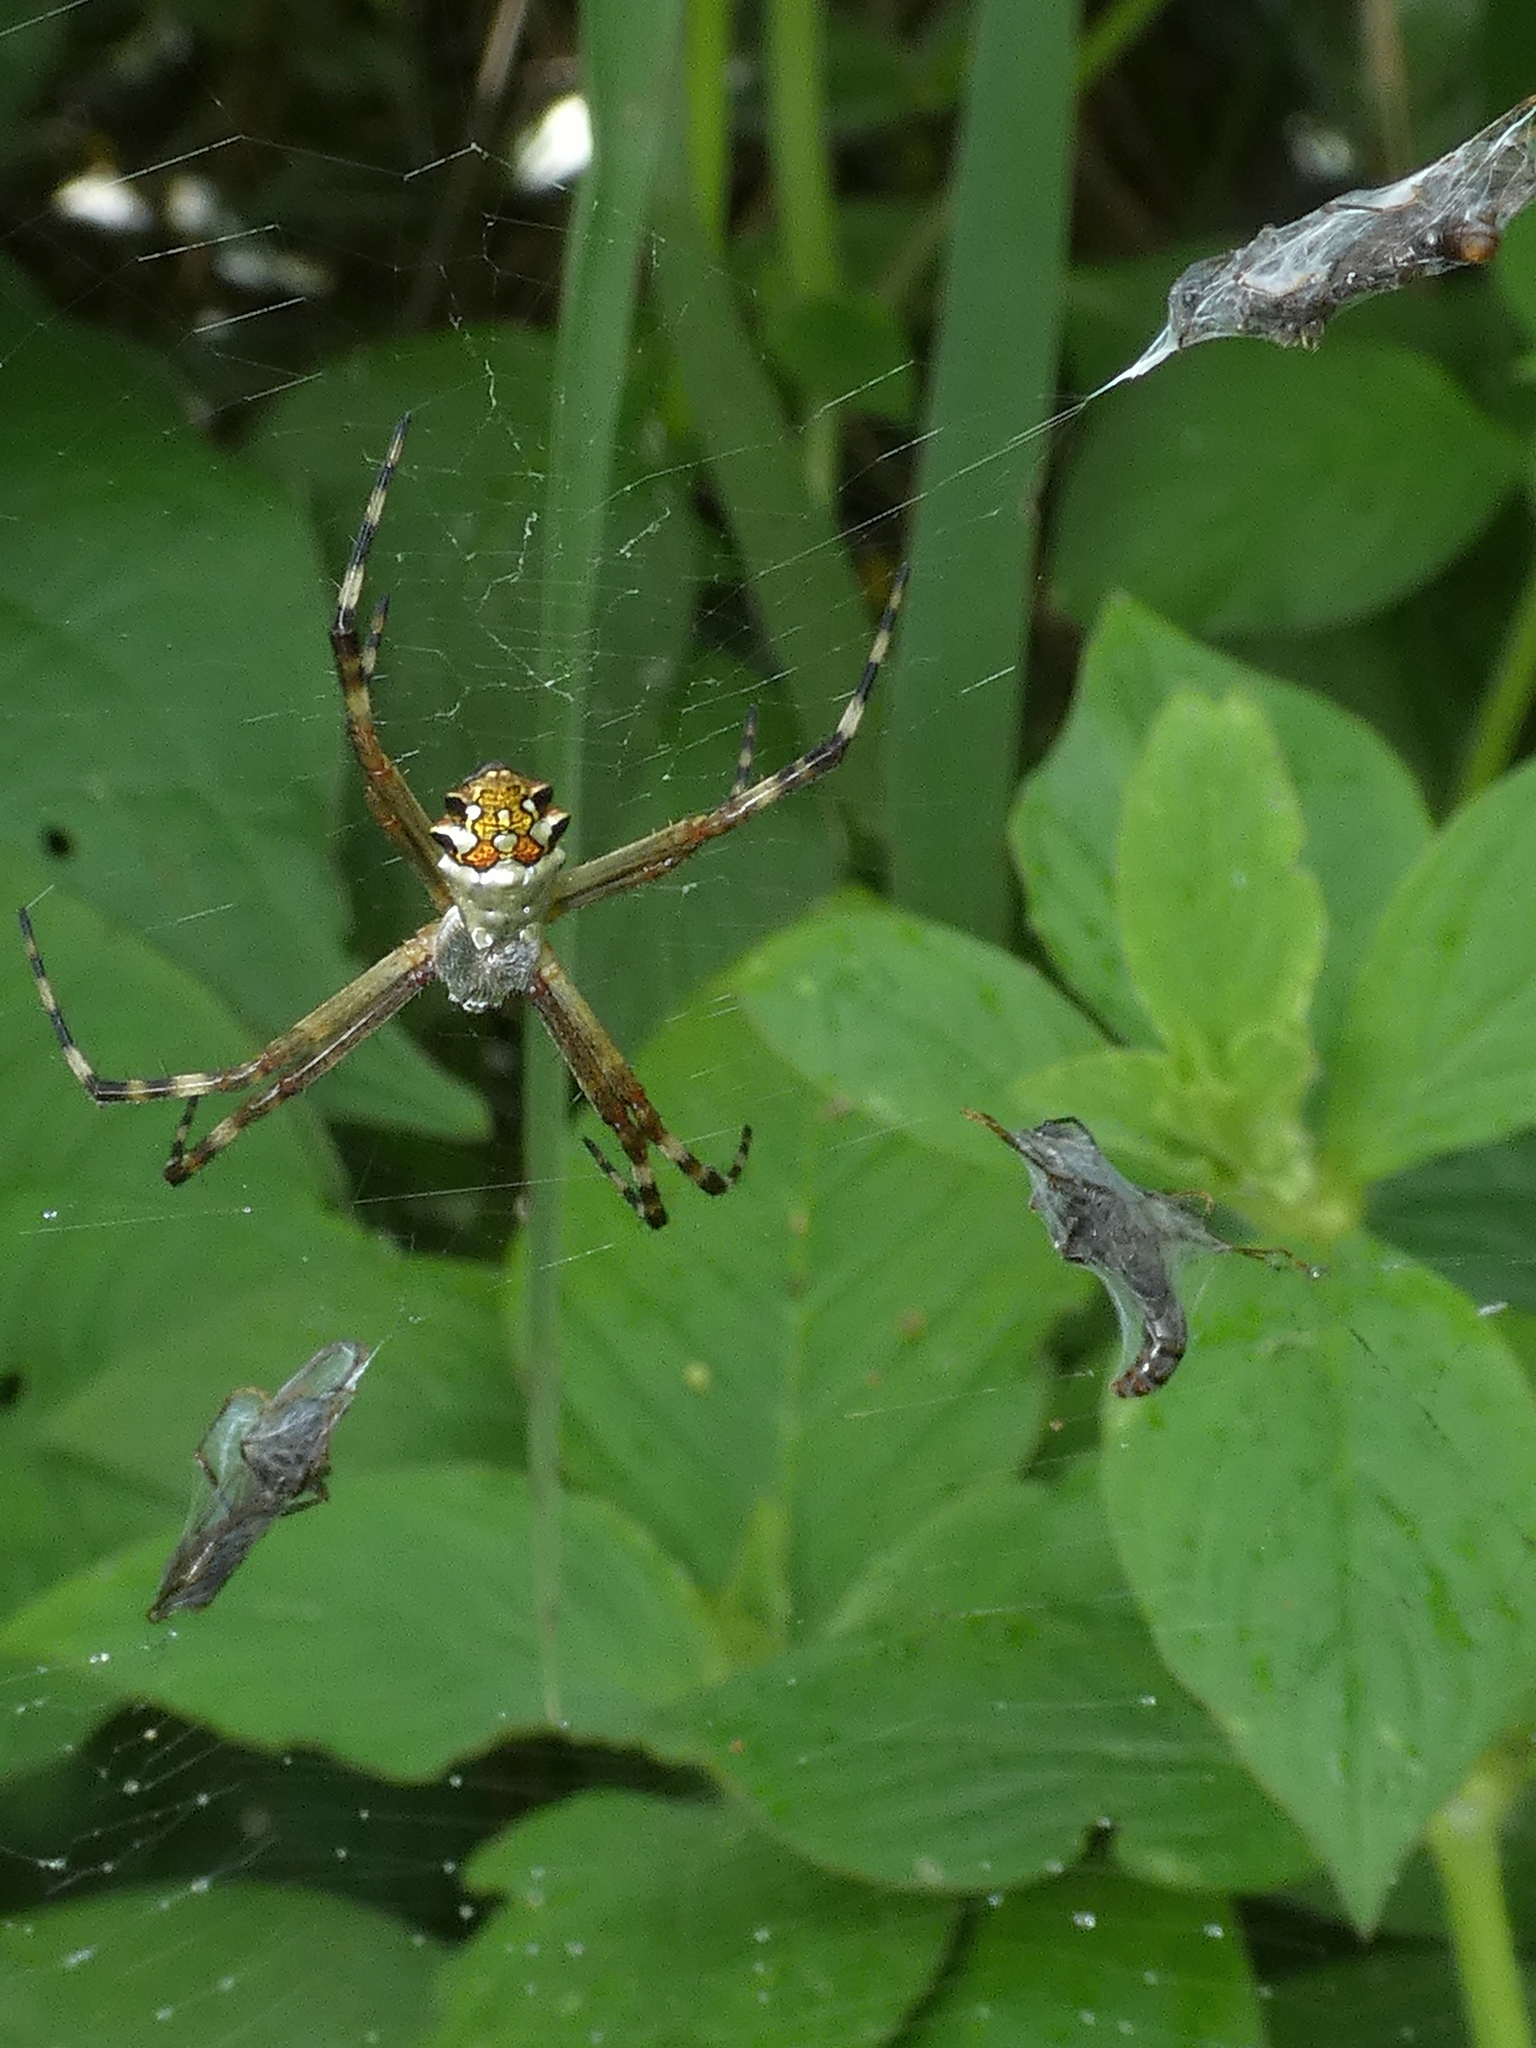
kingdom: Animalia
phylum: Arthropoda
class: Arachnida
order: Araneae
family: Araneidae
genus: Argiope
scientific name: Argiope argentata
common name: Orb weavers
